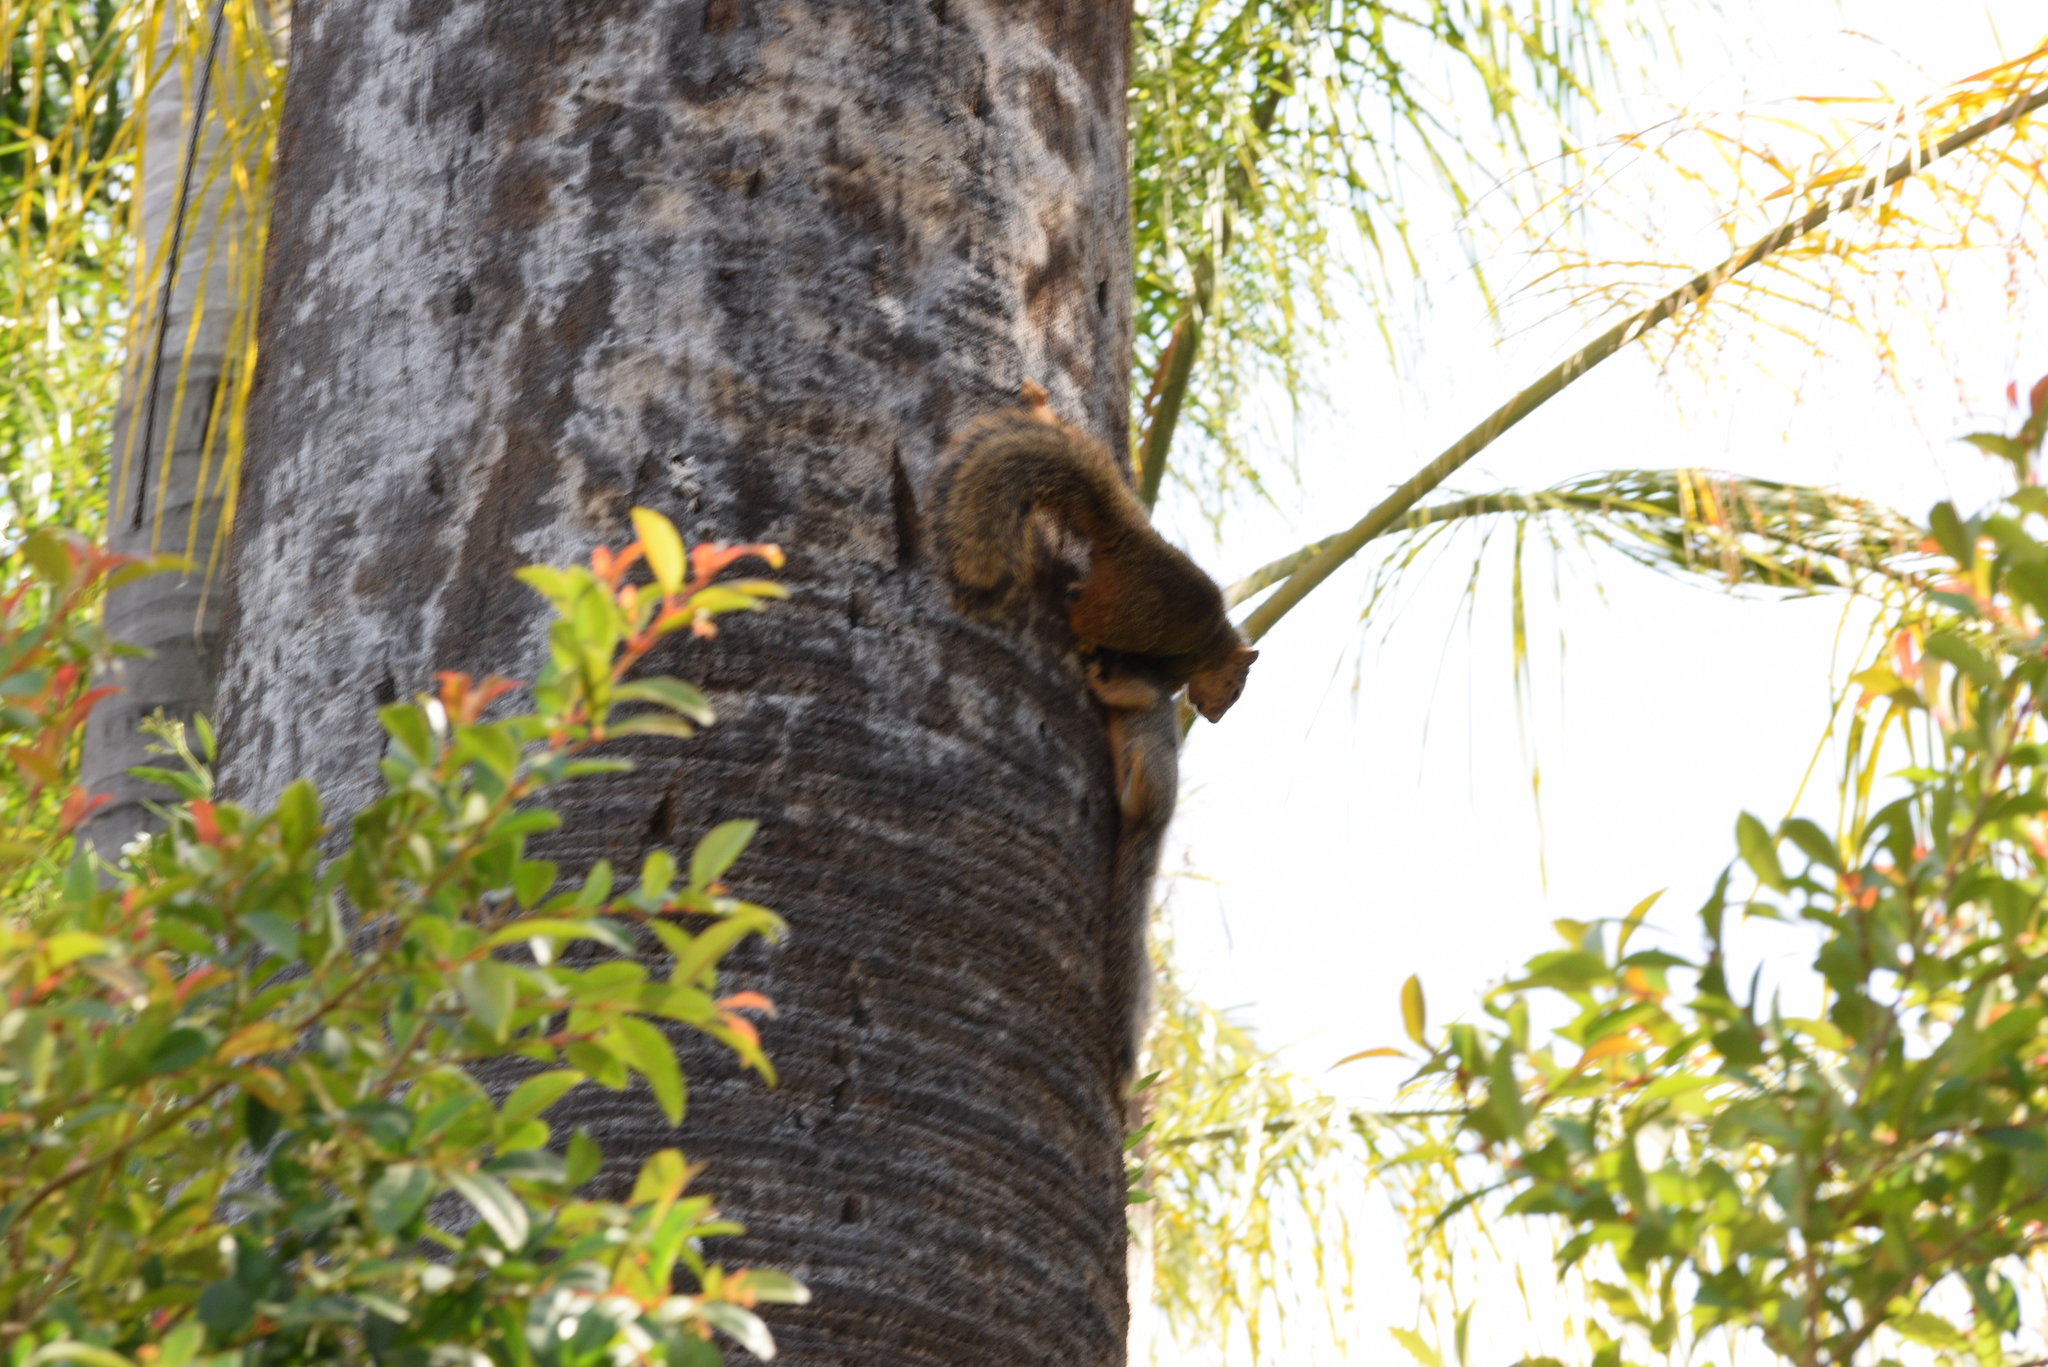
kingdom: Animalia
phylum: Chordata
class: Mammalia
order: Rodentia
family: Sciuridae
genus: Sciurus
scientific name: Sciurus niger
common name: Fox squirrel
